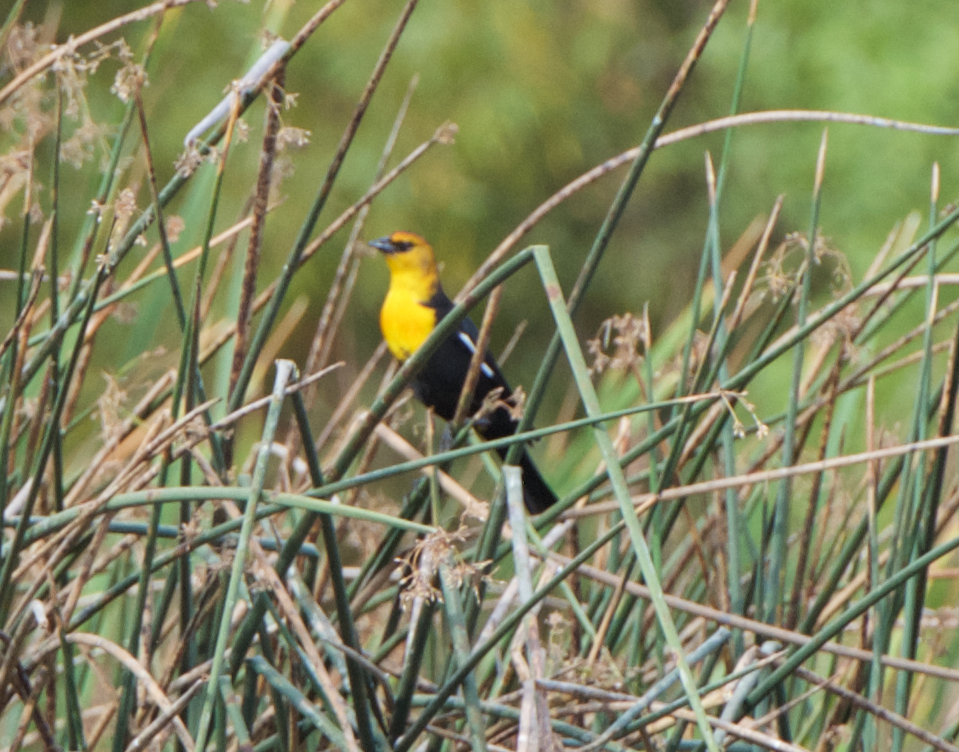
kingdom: Animalia
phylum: Chordata
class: Aves
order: Passeriformes
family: Icteridae
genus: Xanthocephalus
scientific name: Xanthocephalus xanthocephalus
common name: Yellow-headed blackbird
